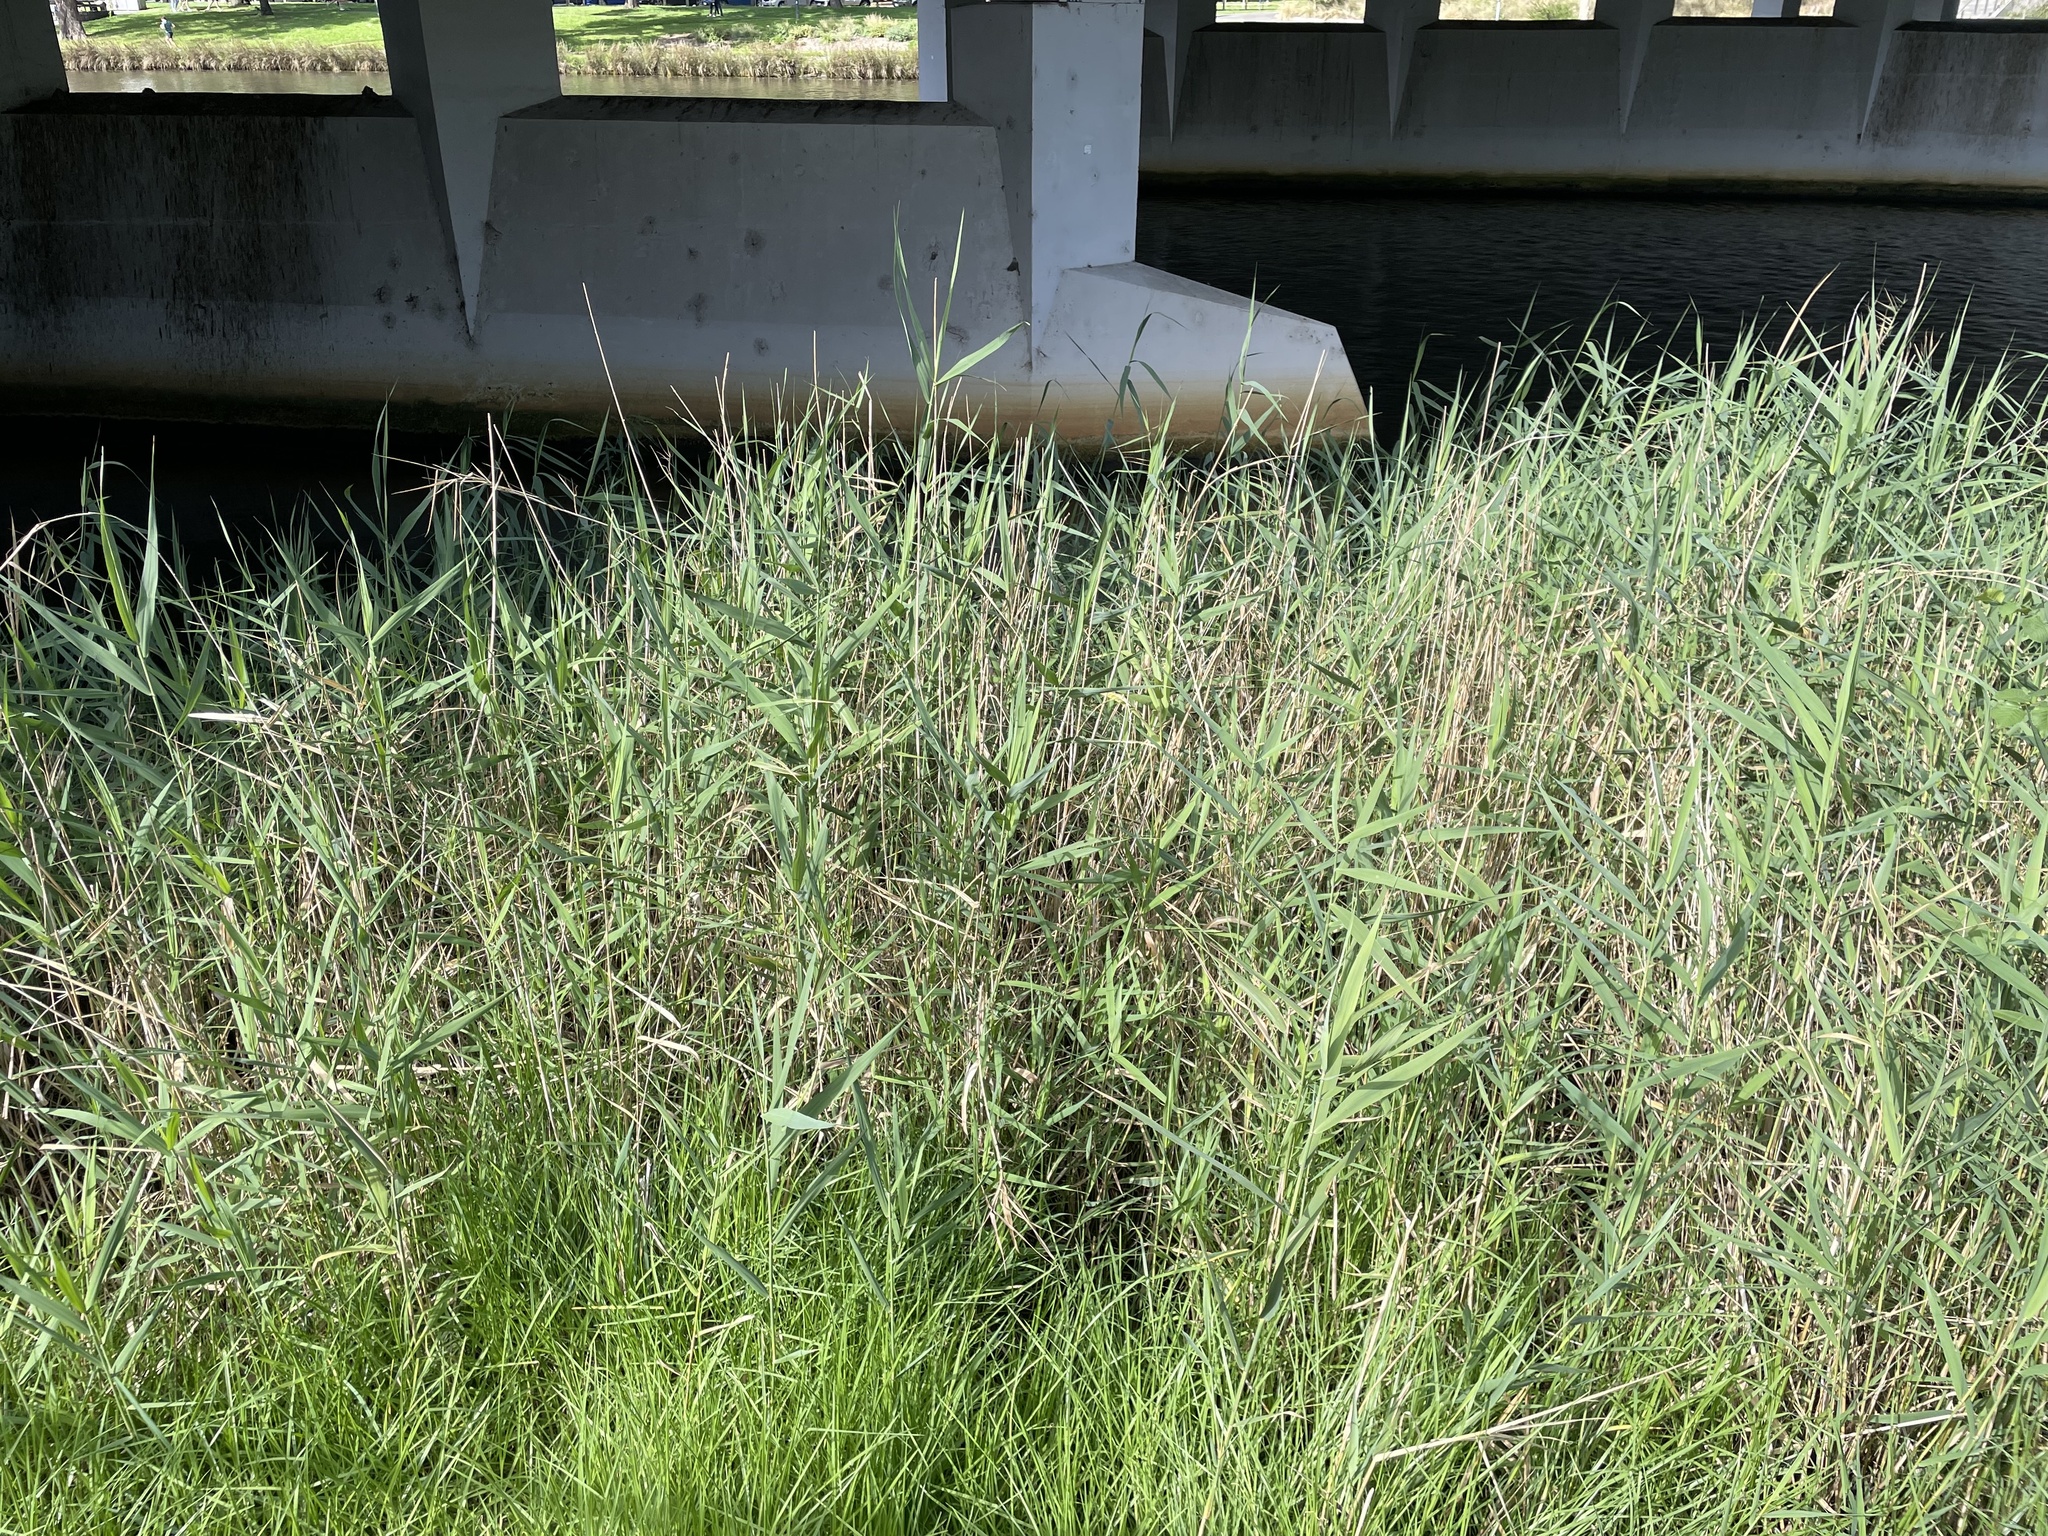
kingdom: Plantae
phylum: Tracheophyta
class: Liliopsida
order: Poales
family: Poaceae
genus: Phragmites
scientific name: Phragmites australis
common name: Common reed
